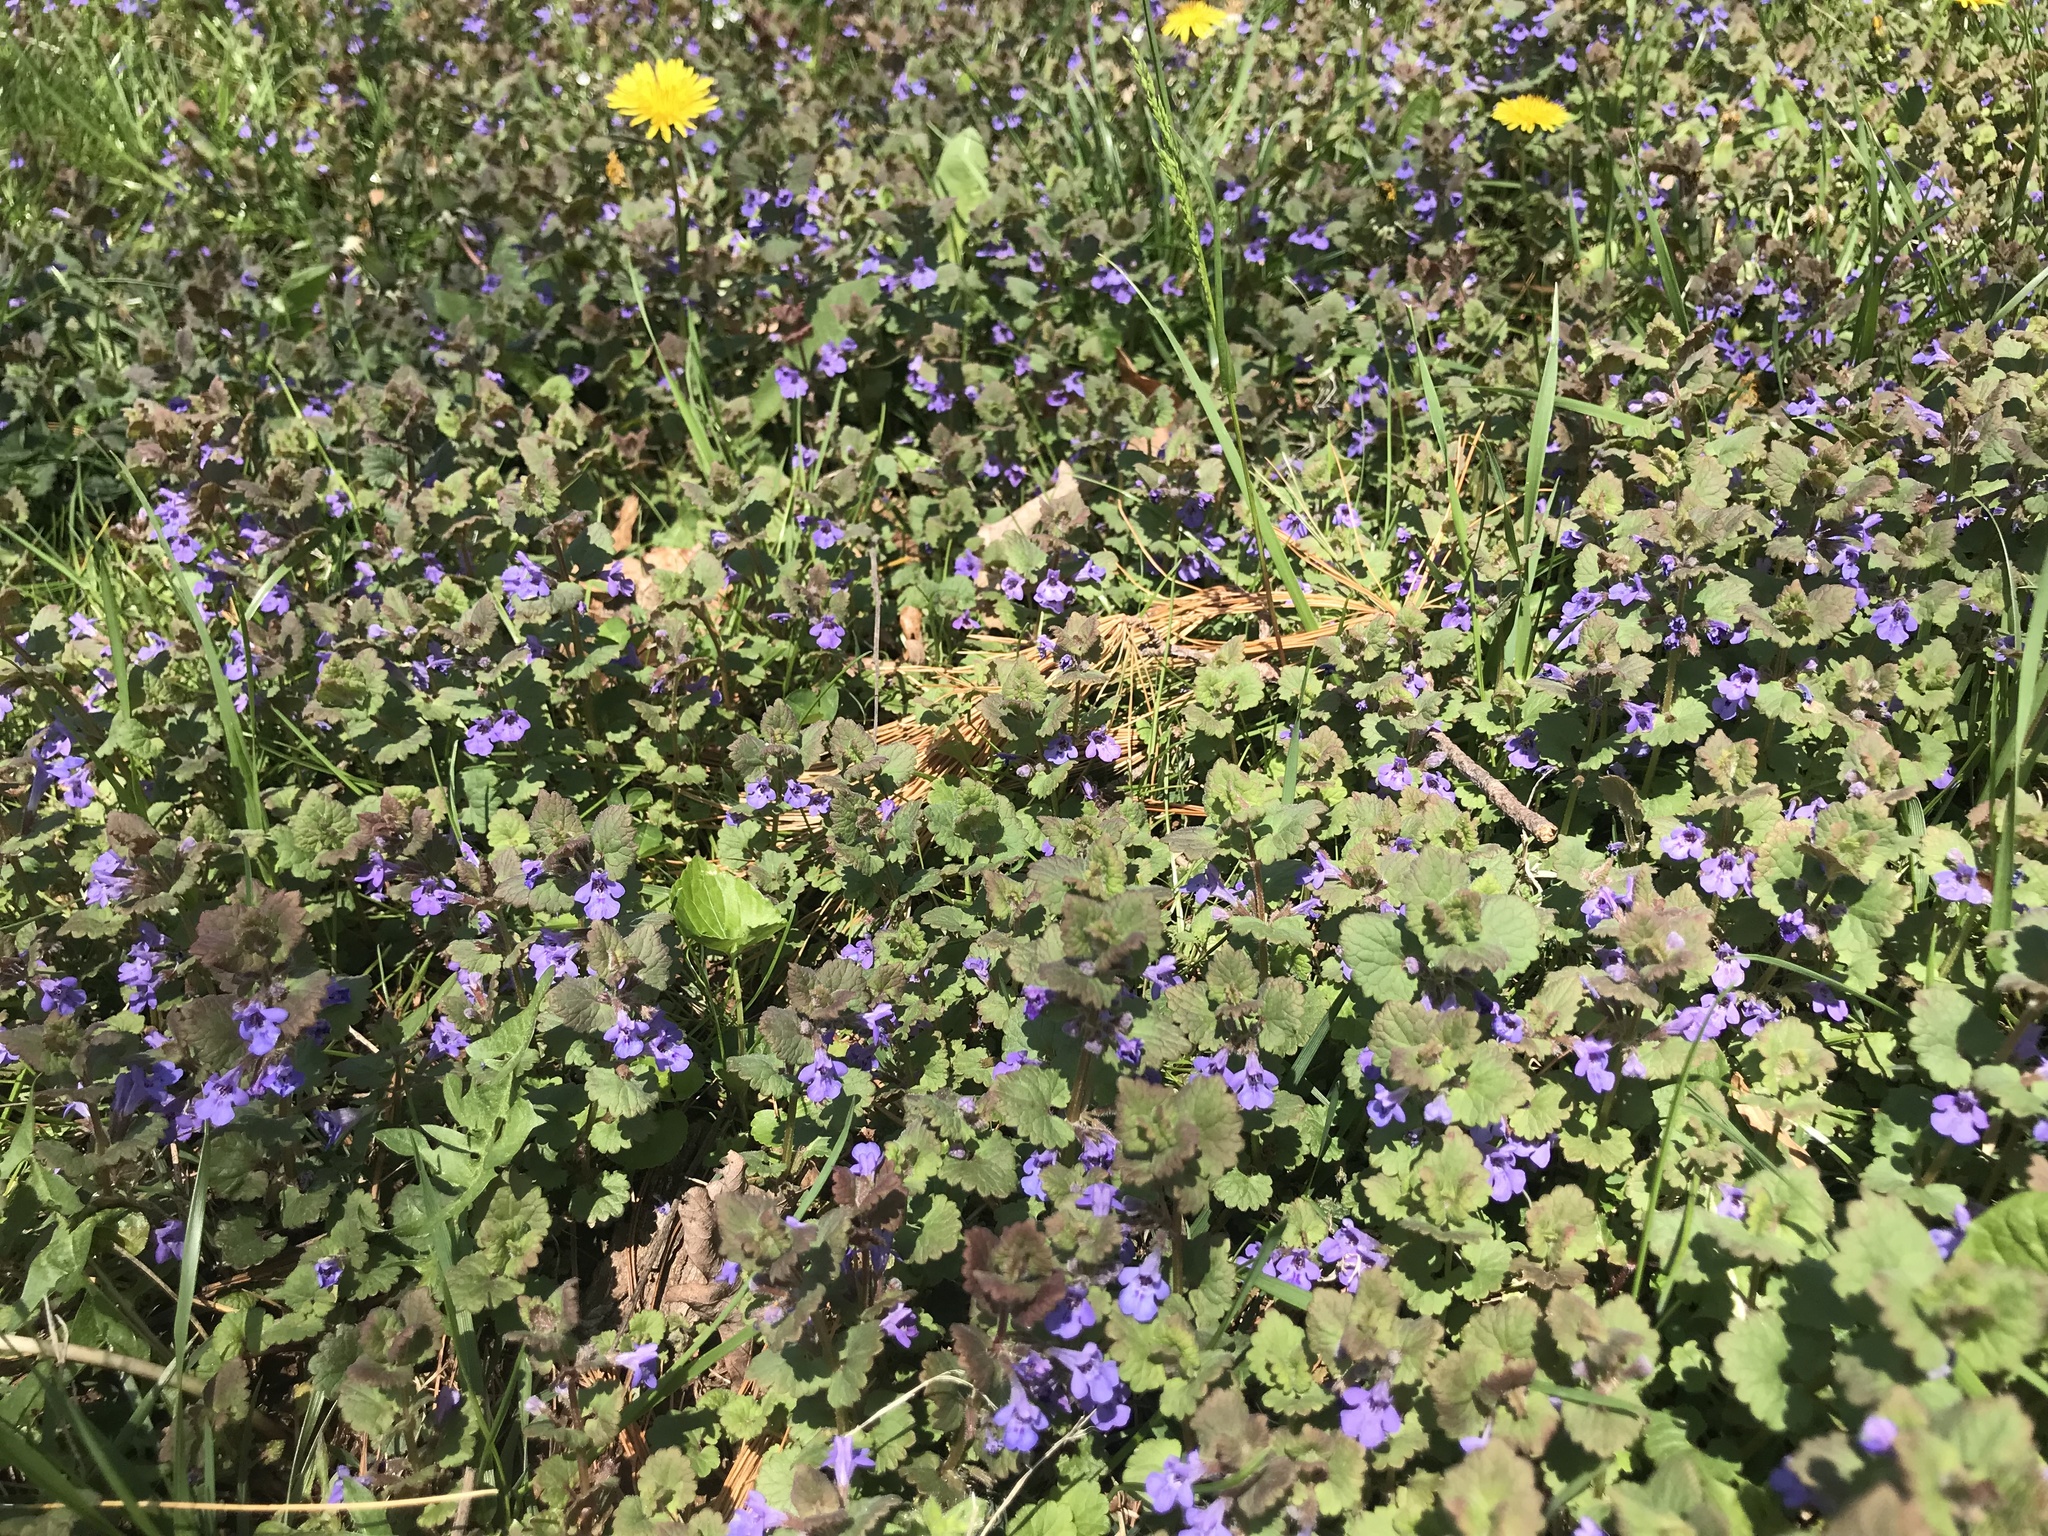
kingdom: Plantae
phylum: Tracheophyta
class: Magnoliopsida
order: Lamiales
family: Lamiaceae
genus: Glechoma
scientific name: Glechoma hederacea
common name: Ground ivy
